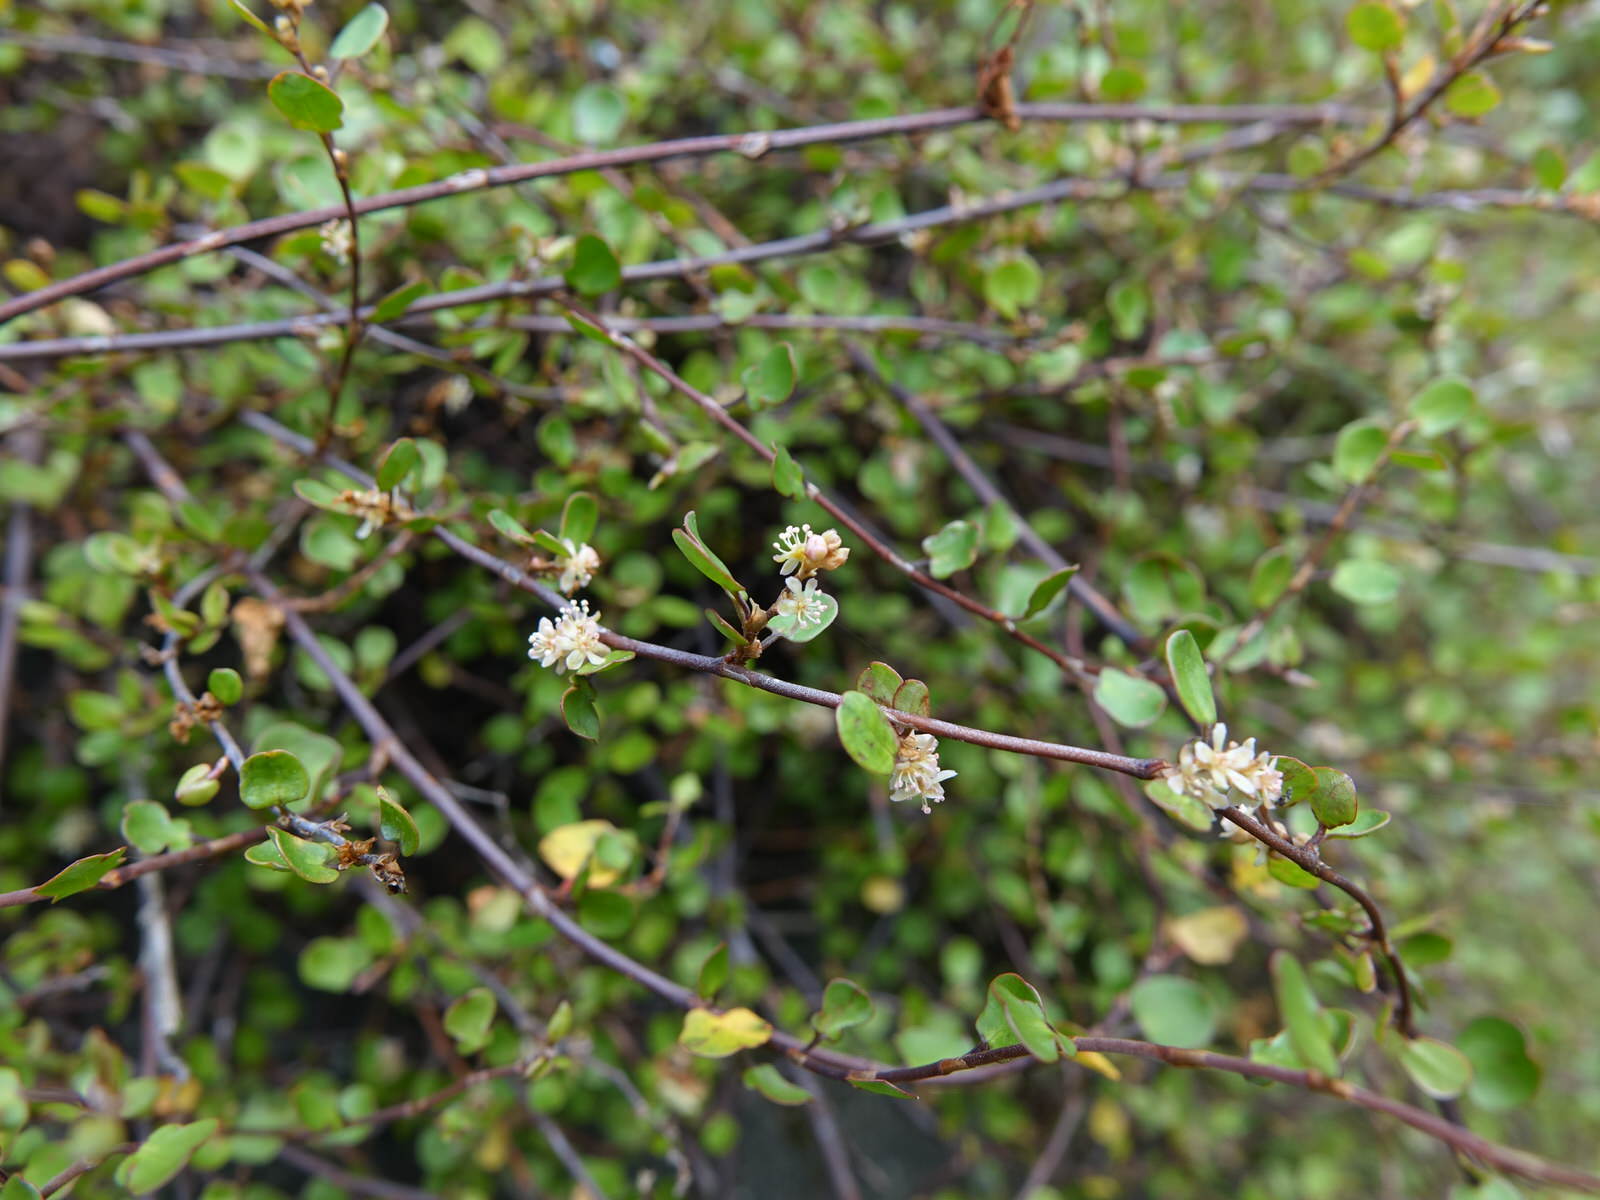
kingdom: Plantae
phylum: Tracheophyta
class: Magnoliopsida
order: Caryophyllales
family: Polygonaceae
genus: Muehlenbeckia
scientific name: Muehlenbeckia complexa
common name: Wireplant
